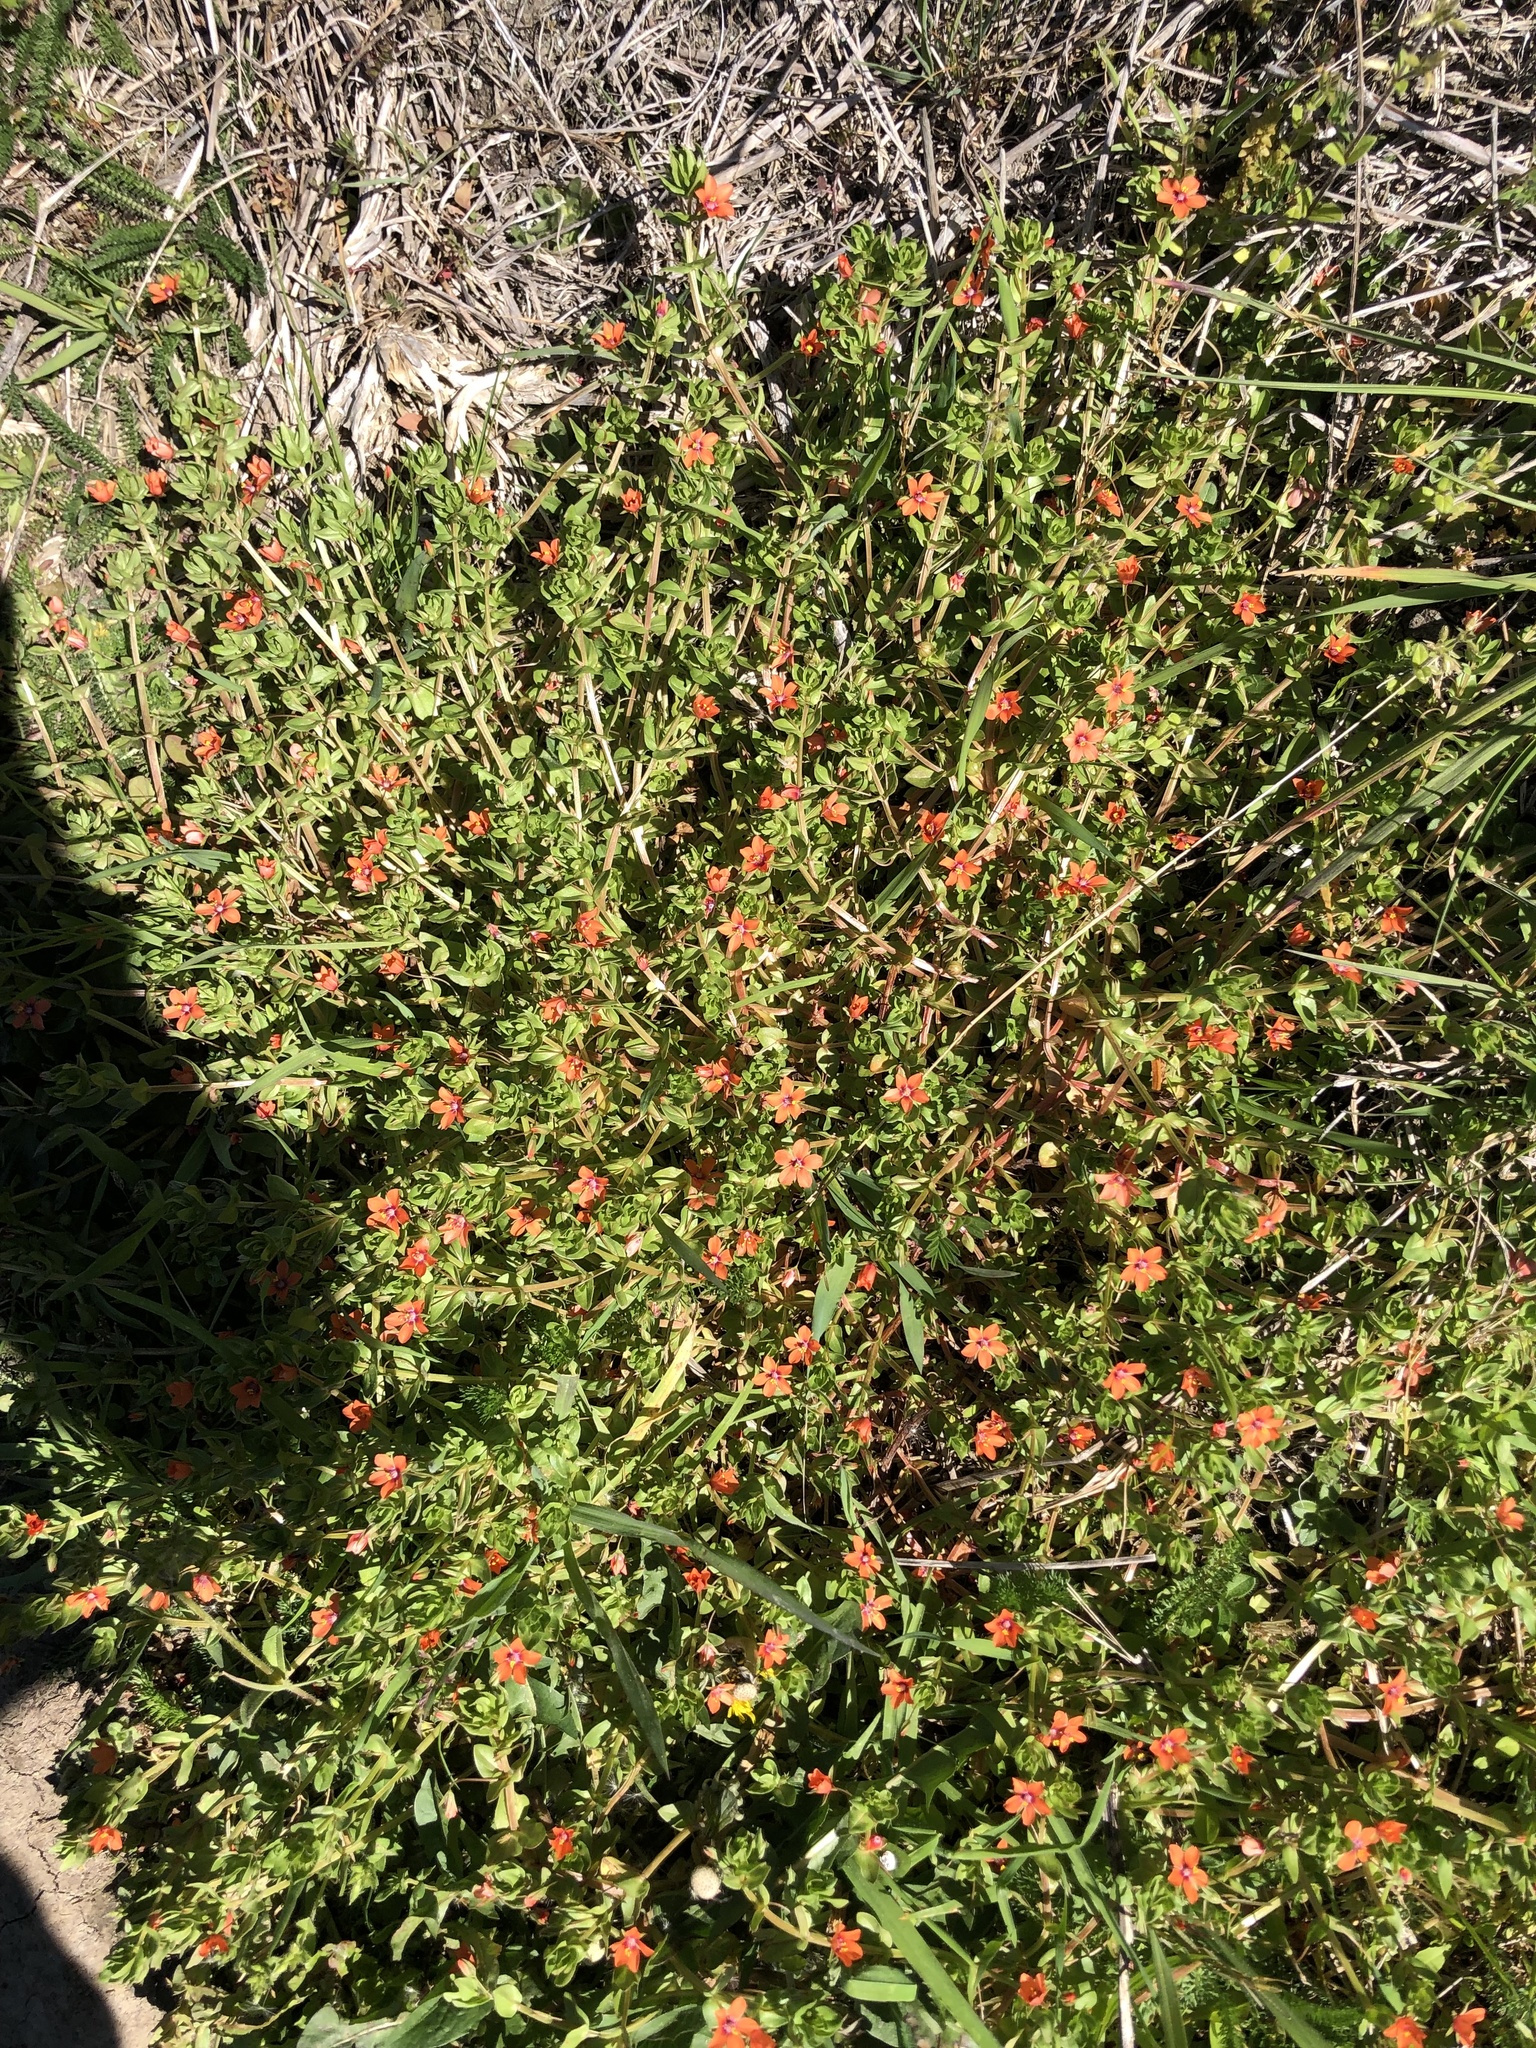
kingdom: Plantae
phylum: Tracheophyta
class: Magnoliopsida
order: Ericales
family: Primulaceae
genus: Lysimachia
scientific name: Lysimachia arvensis
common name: Scarlet pimpernel
